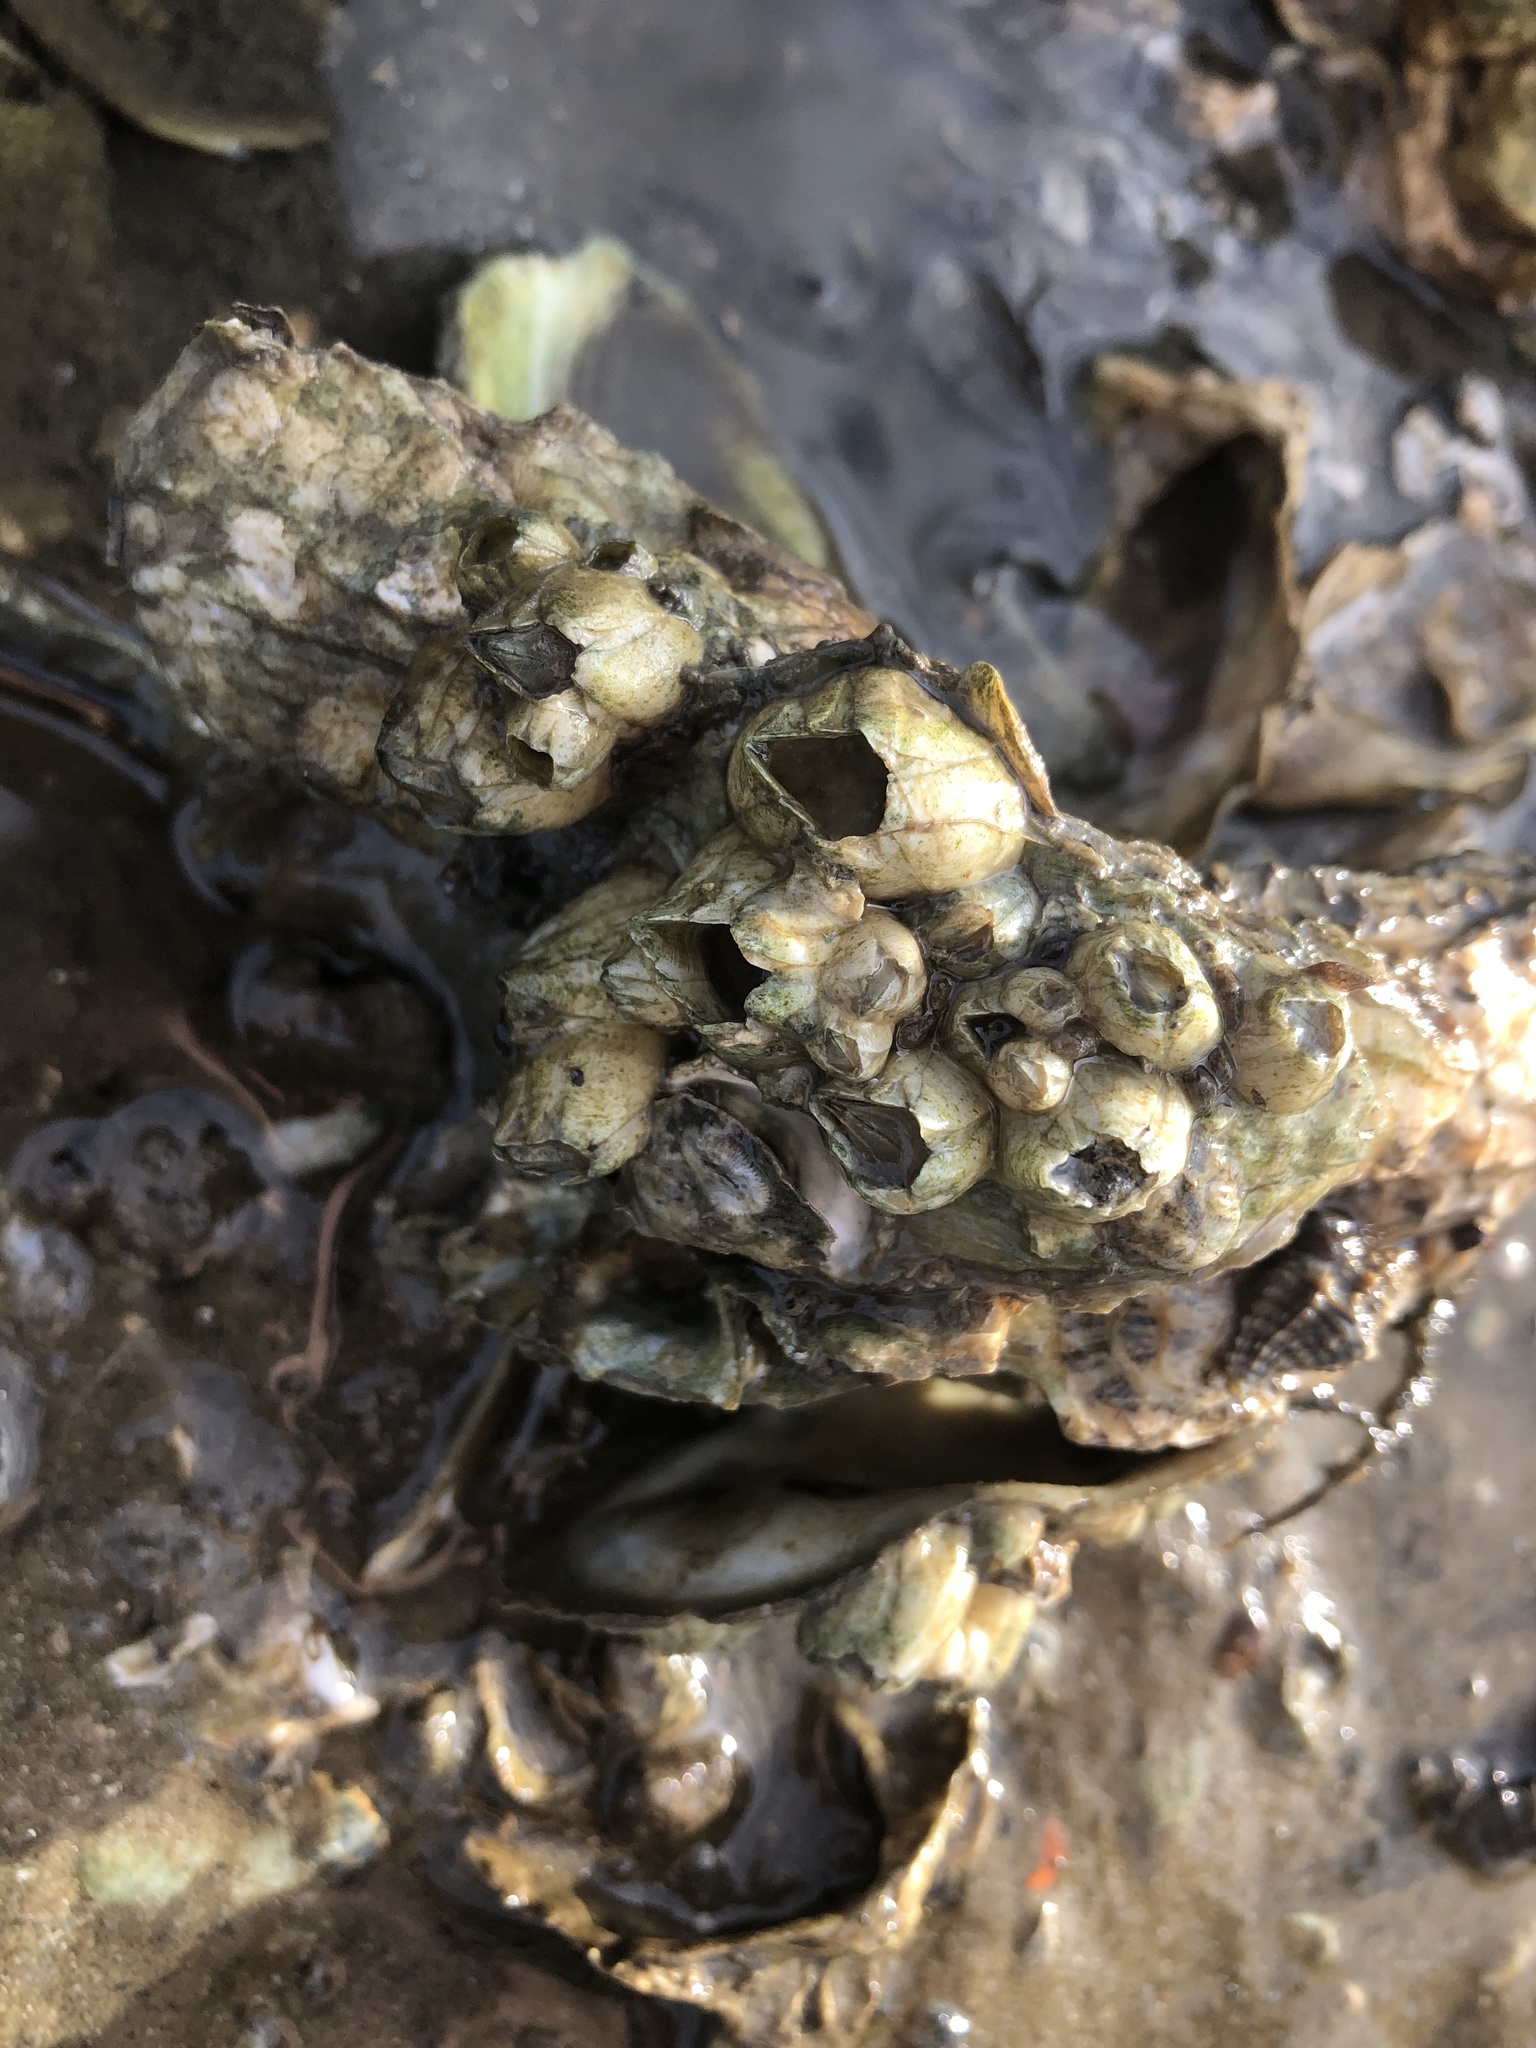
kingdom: Animalia
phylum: Arthropoda
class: Maxillopoda
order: Sessilia
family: Balanidae
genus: Amphibalanus
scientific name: Amphibalanus eburneus
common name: Ivory barnacle
